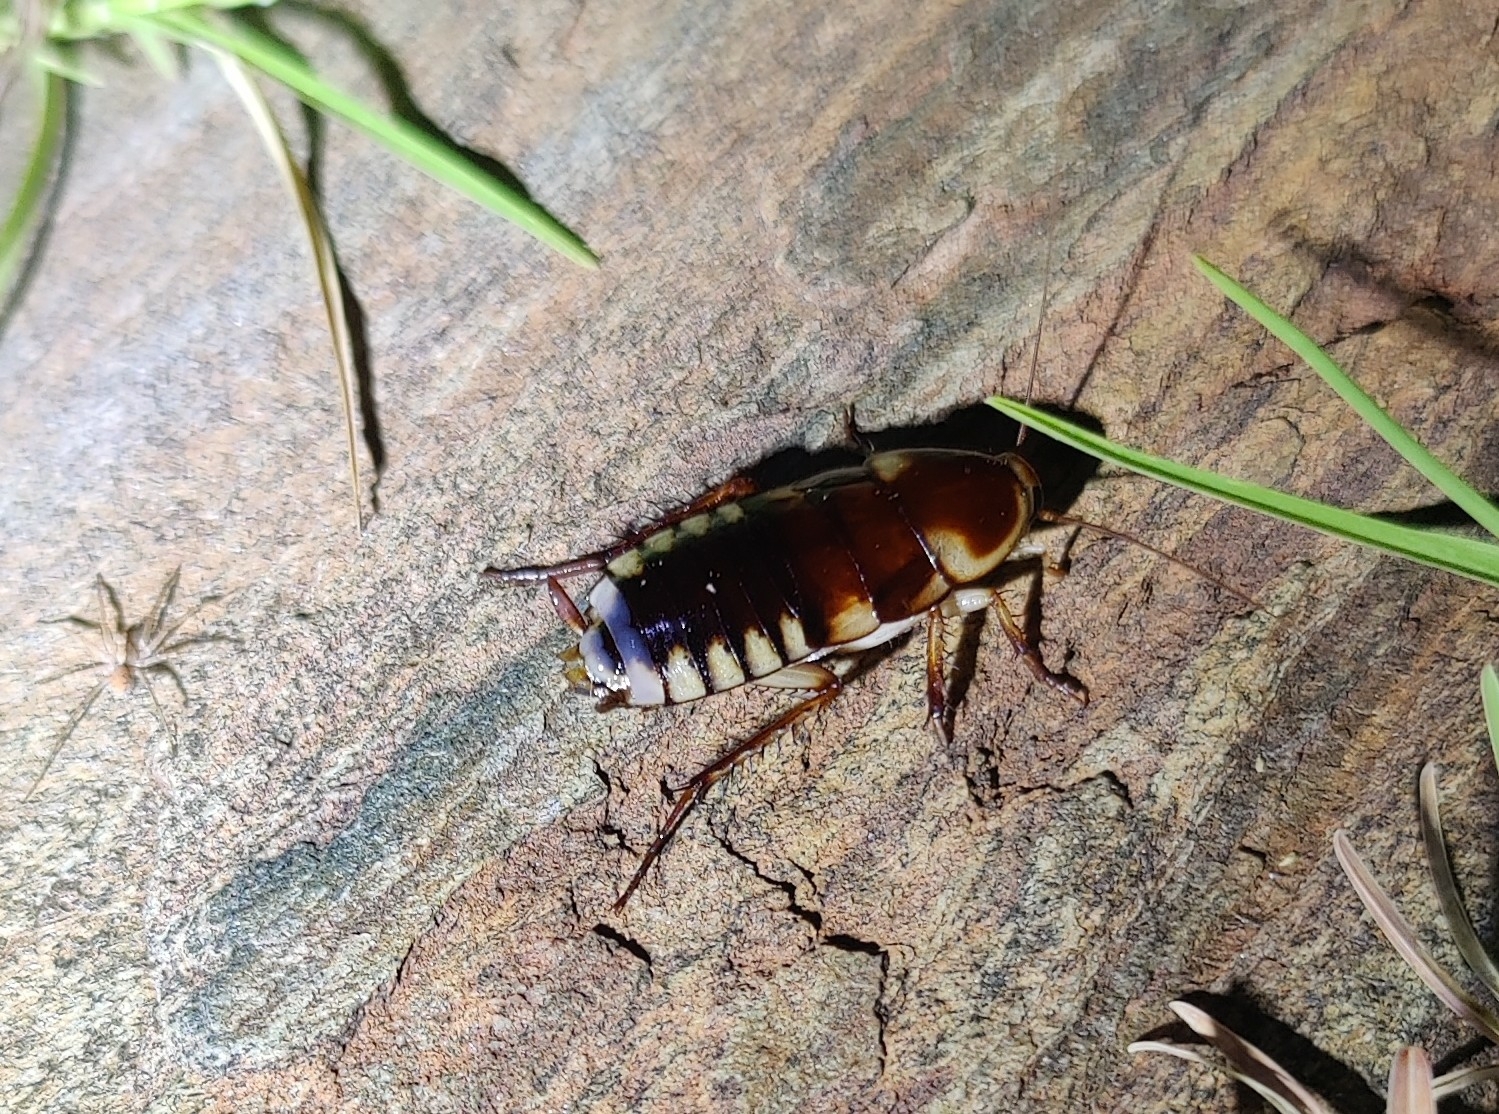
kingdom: Animalia
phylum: Arthropoda
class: Insecta
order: Blattodea
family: Blattidae
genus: Neostylopyga
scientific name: Neostylopyga ornata
